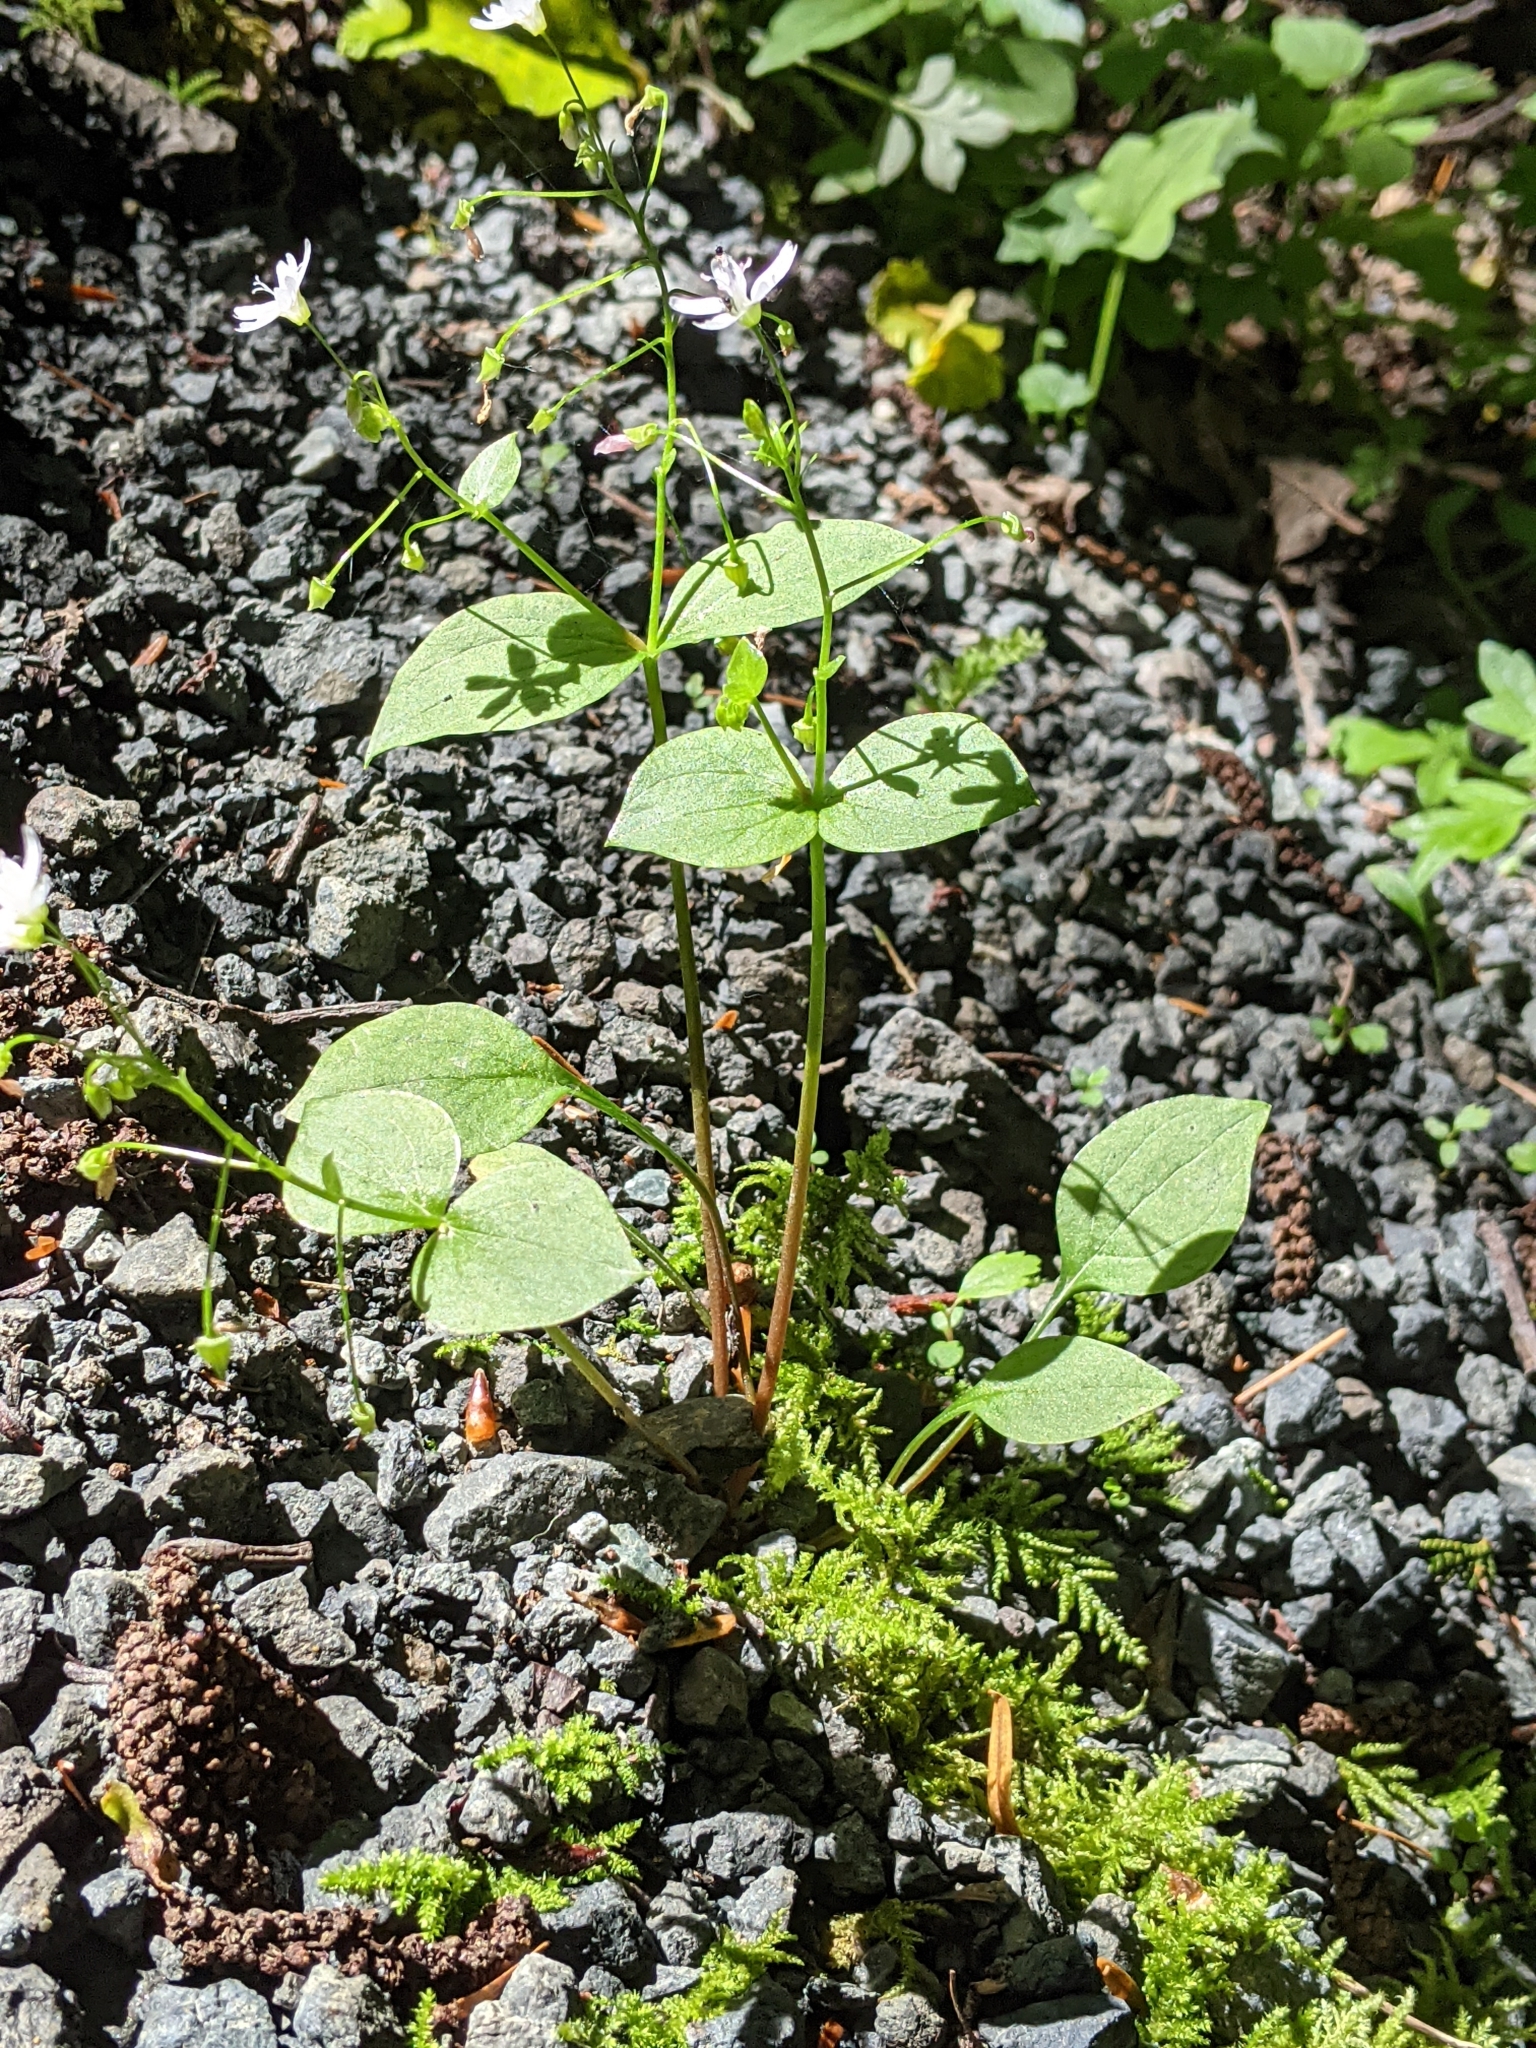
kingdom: Plantae
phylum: Tracheophyta
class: Magnoliopsida
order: Caryophyllales
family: Montiaceae
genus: Claytonia
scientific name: Claytonia sibirica
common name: Pink purslane
